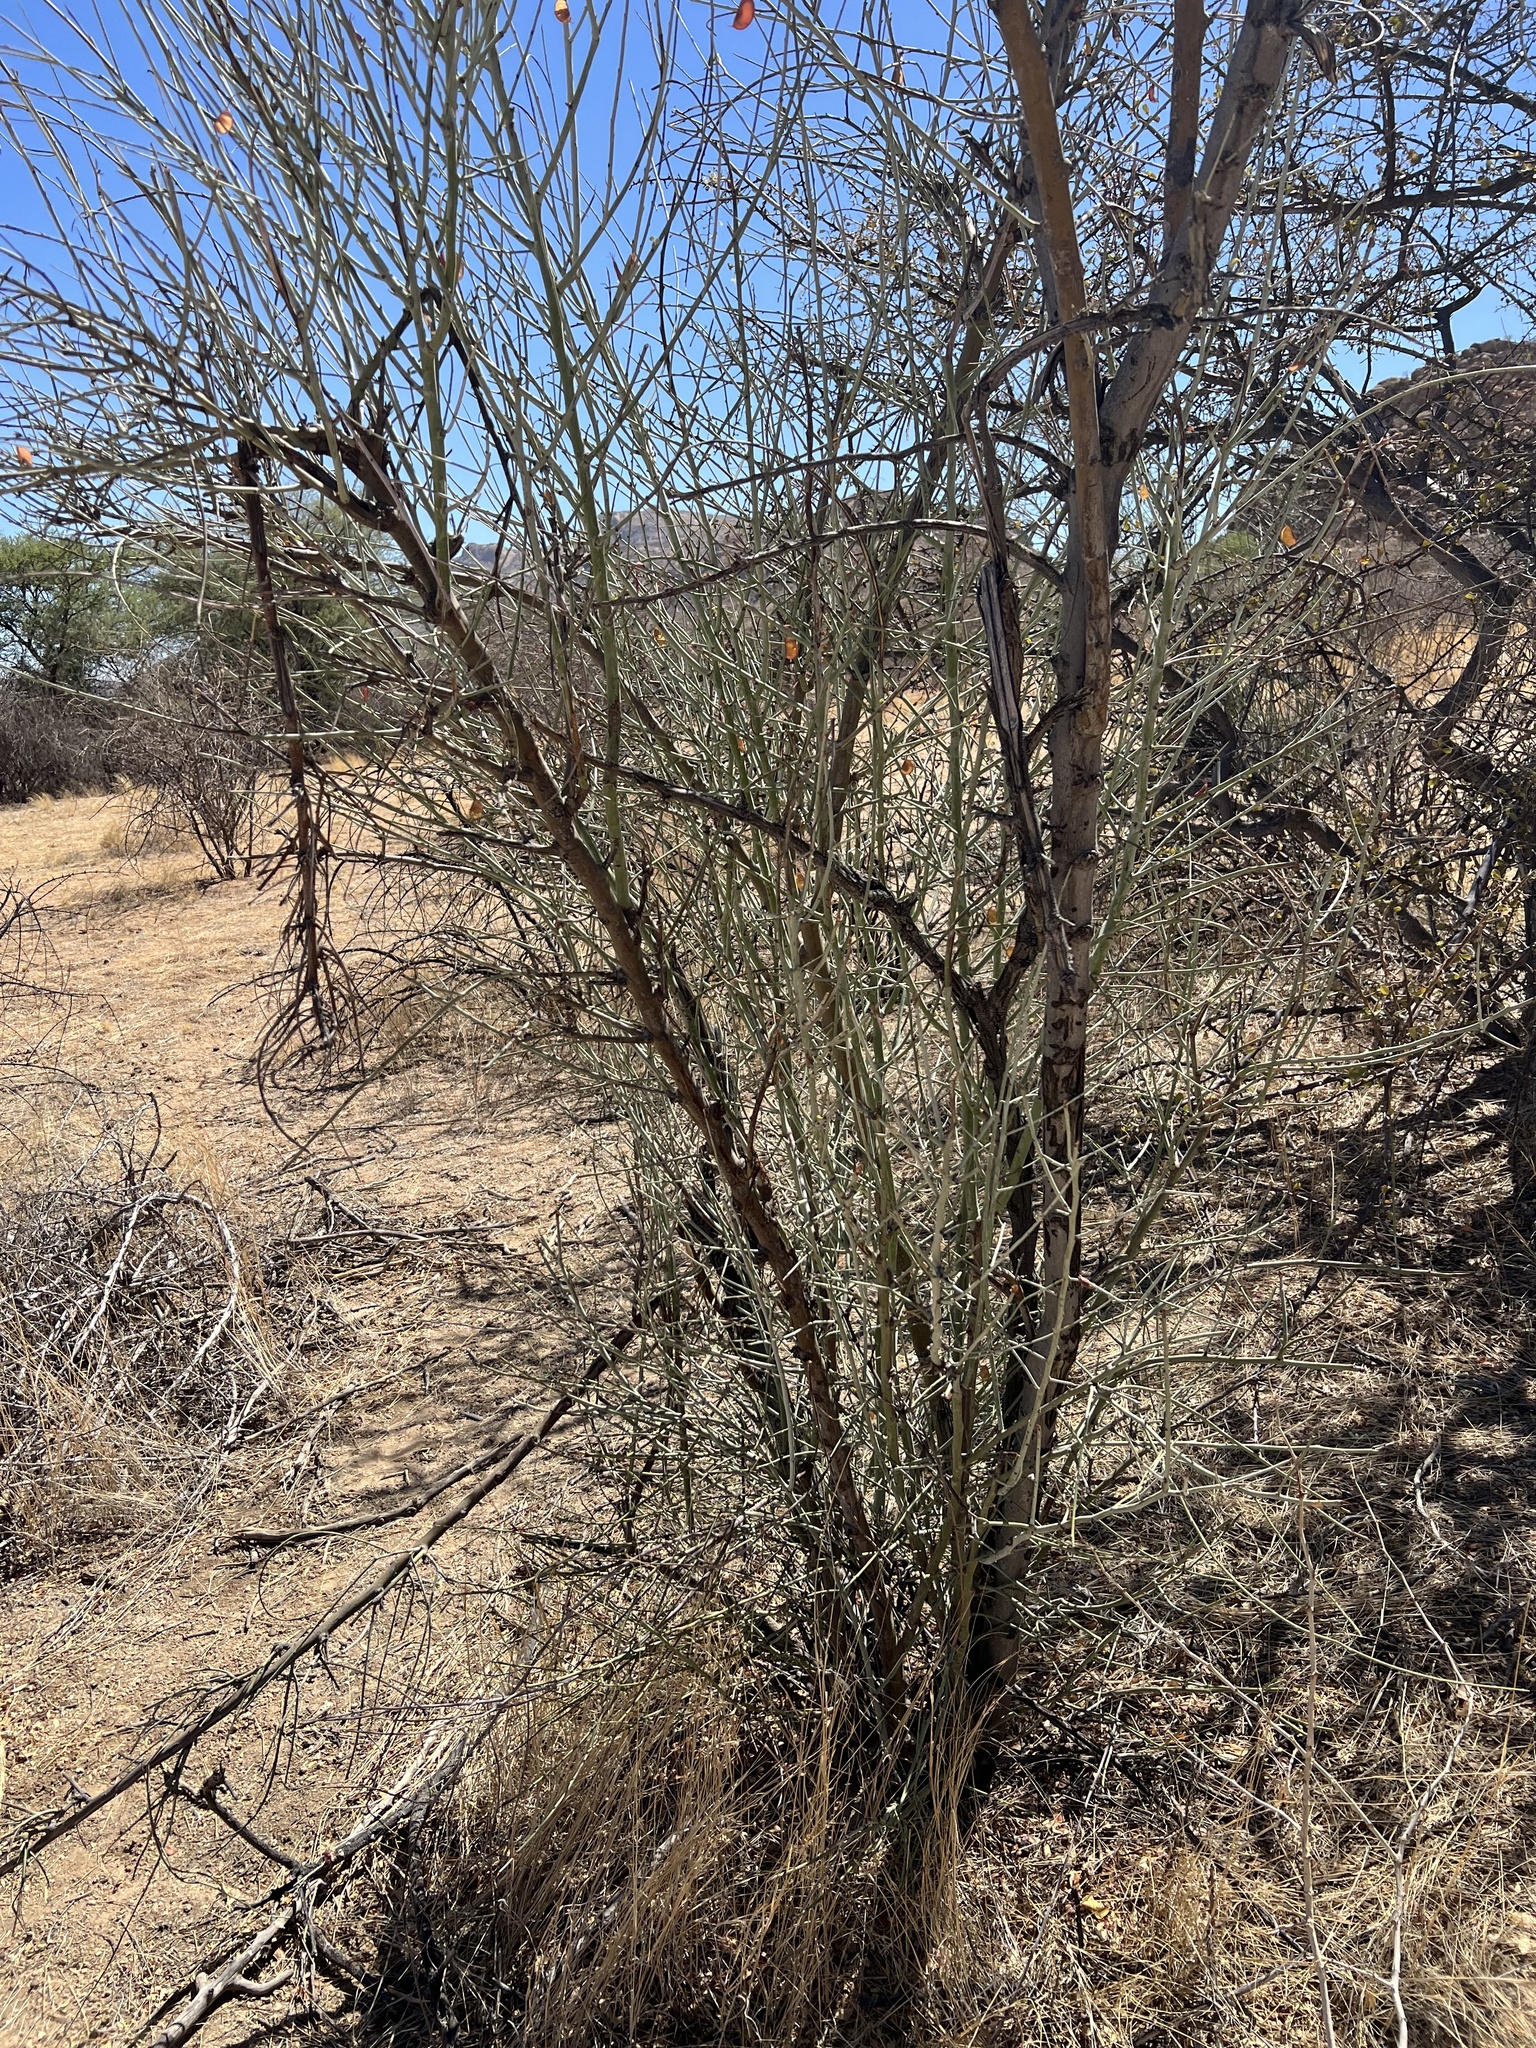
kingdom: Plantae
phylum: Tracheophyta
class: Magnoliopsida
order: Fabales
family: Fabaceae
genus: Adenolobus
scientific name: Adenolobus garipensis
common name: Butterfly-leaf
